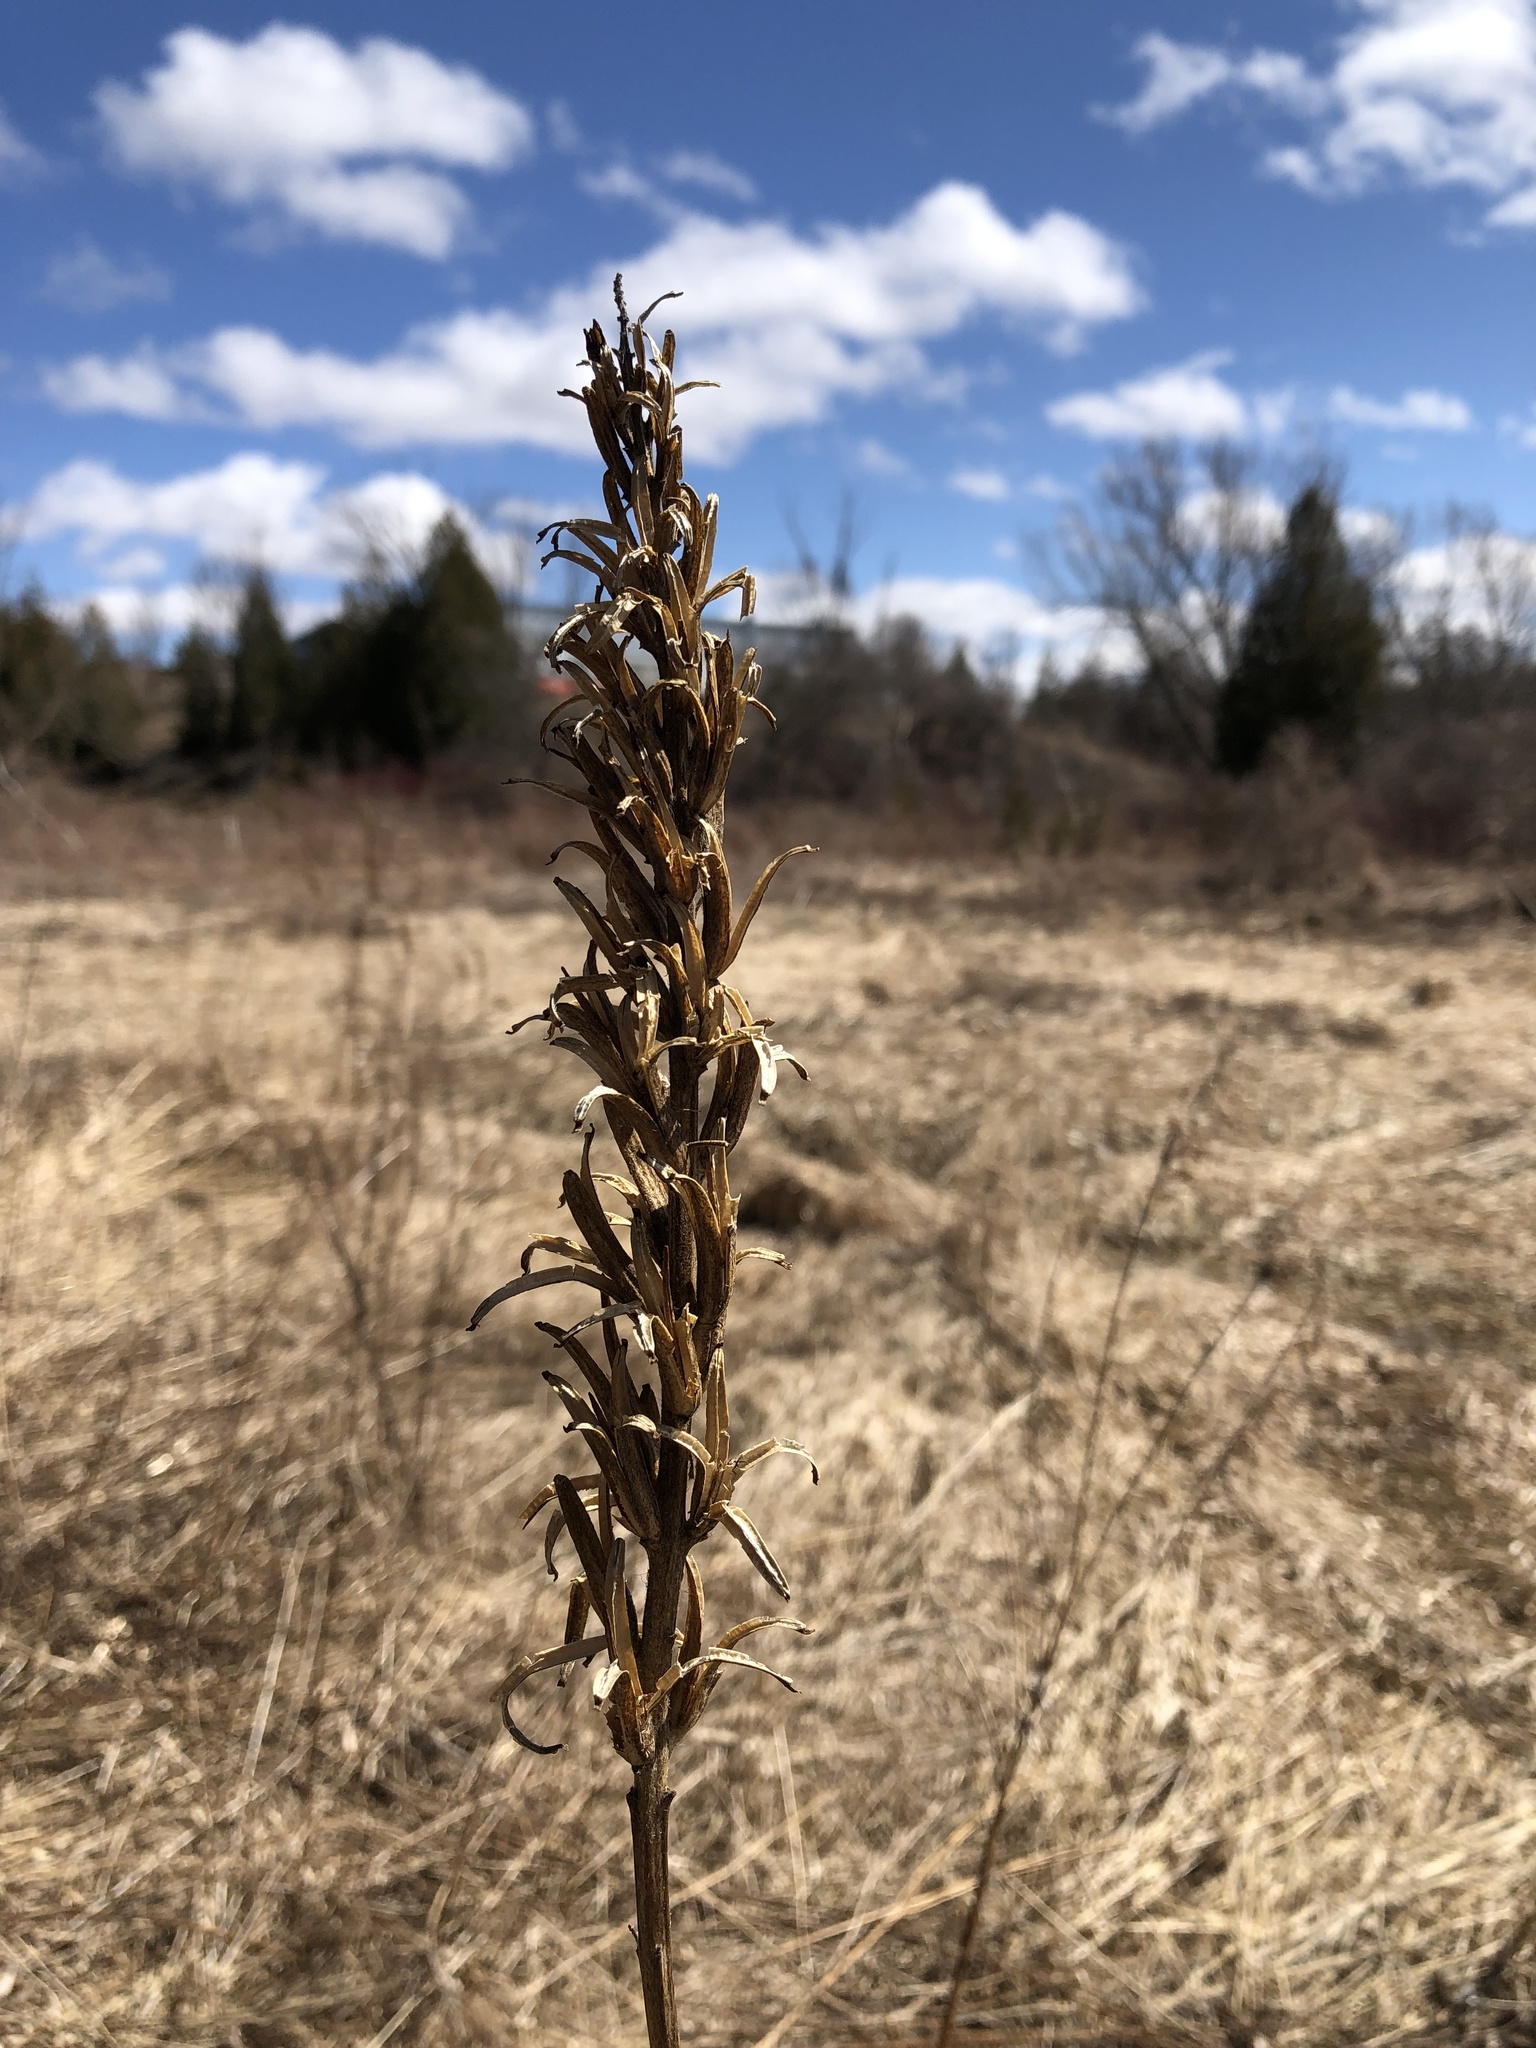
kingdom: Plantae
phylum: Tracheophyta
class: Magnoliopsida
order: Myrtales
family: Onagraceae
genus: Oenothera
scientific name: Oenothera parviflora
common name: Least evening-primrose
